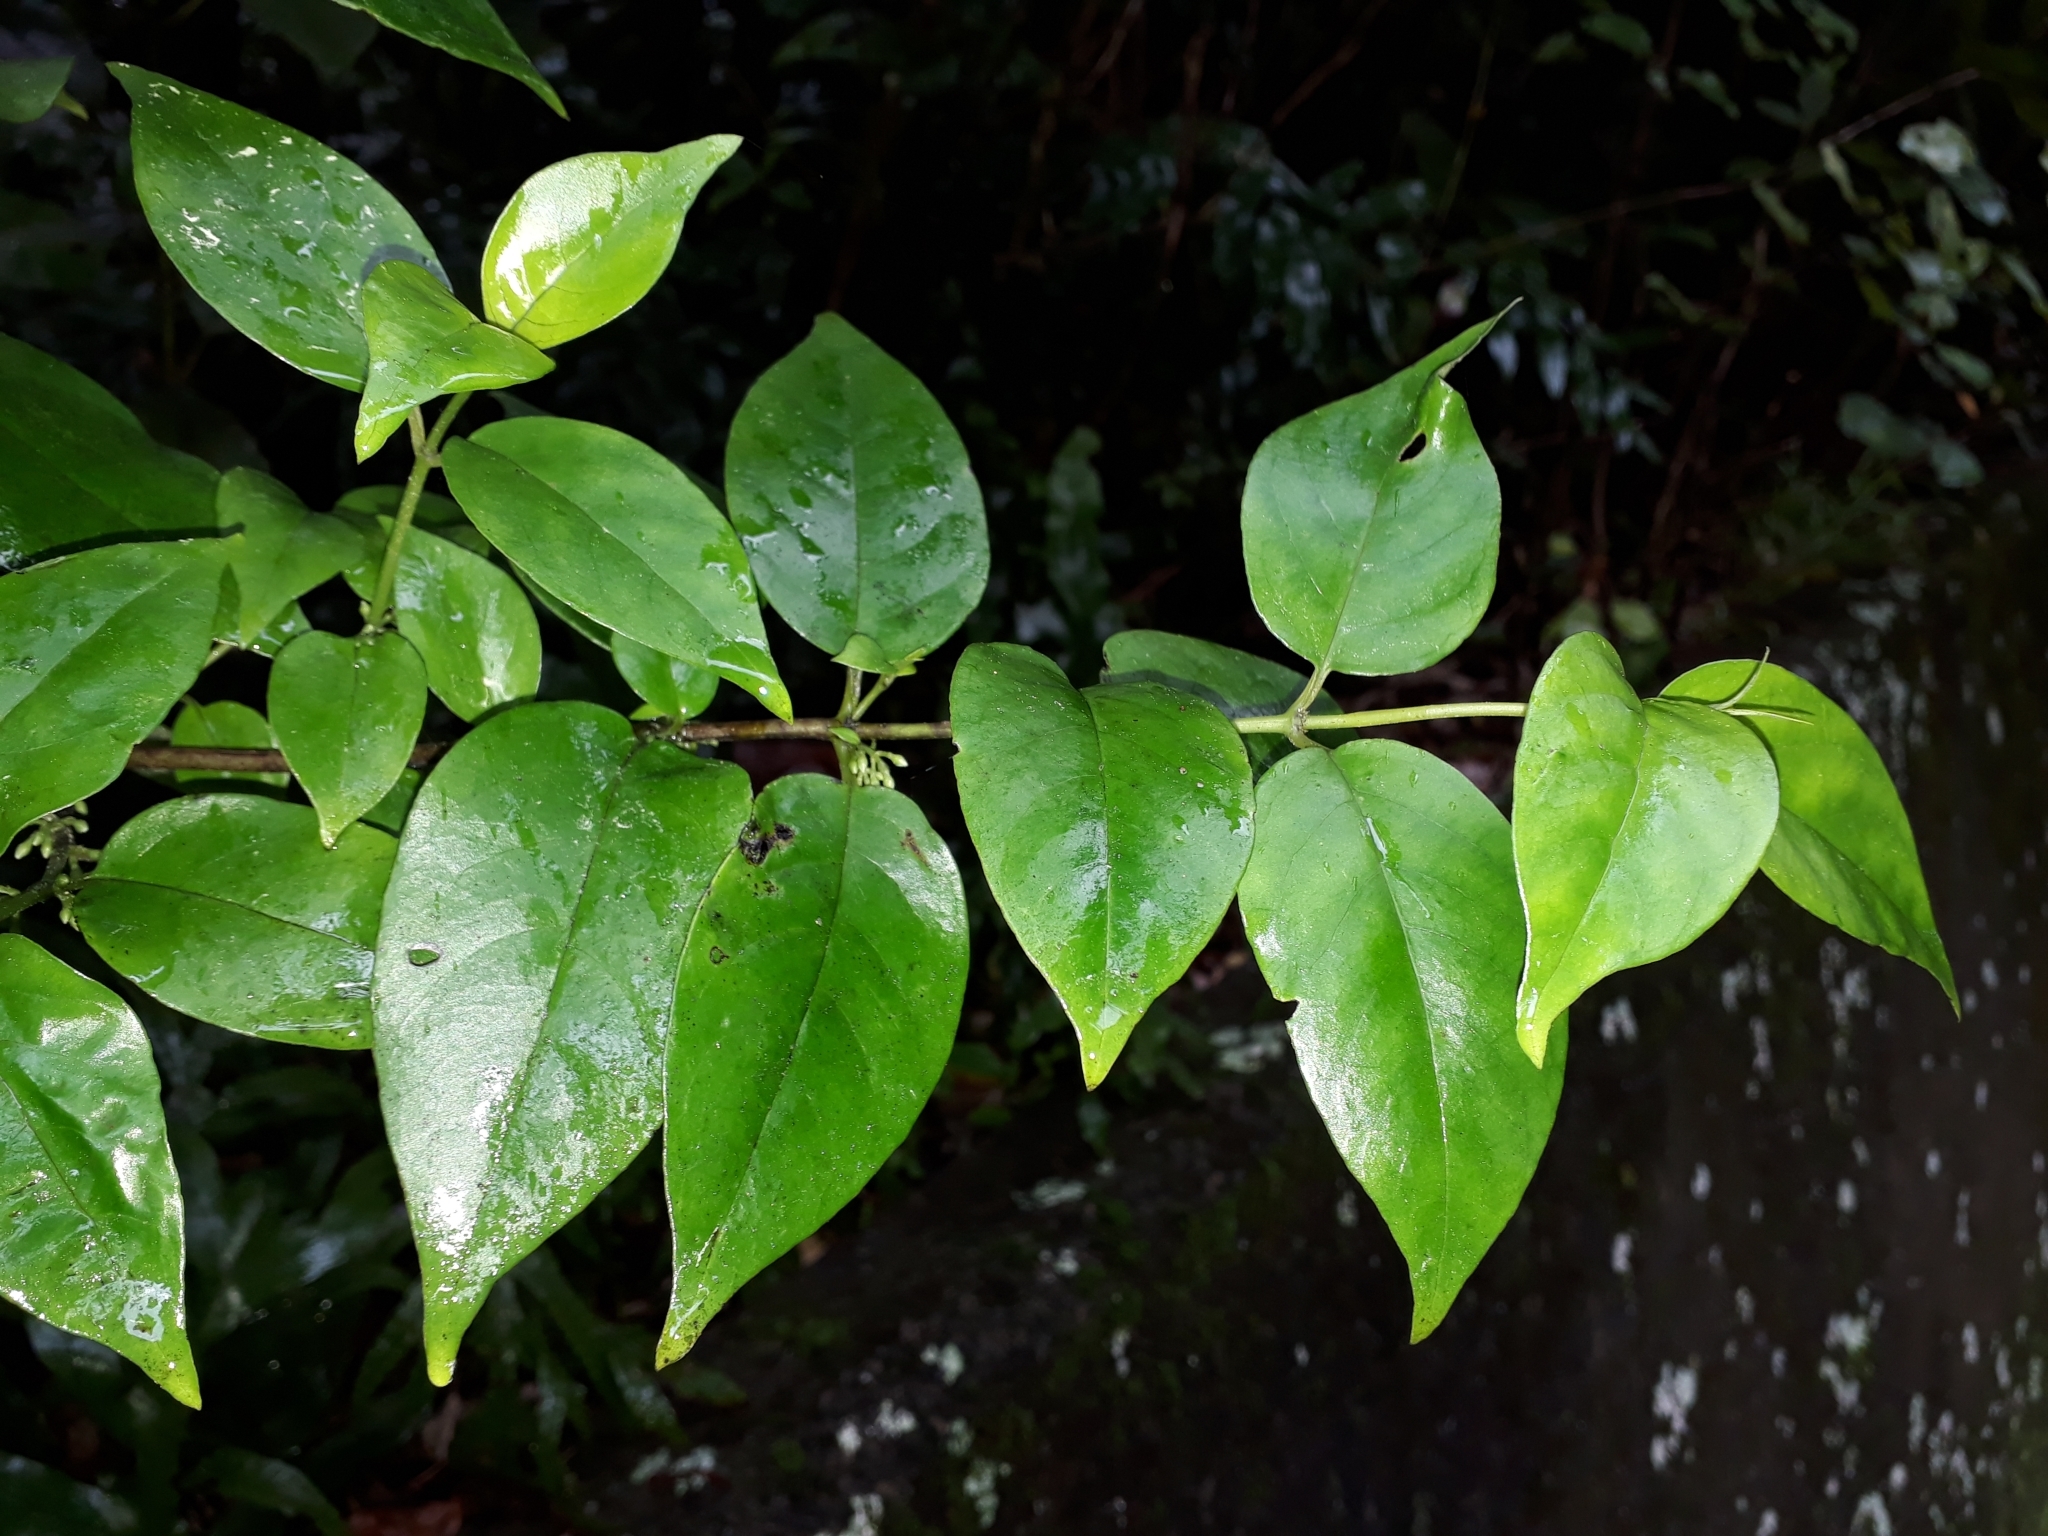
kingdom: Plantae
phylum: Tracheophyta
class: Magnoliopsida
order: Gentianales
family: Loganiaceae
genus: Geniostoma
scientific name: Geniostoma ligustrifolium
